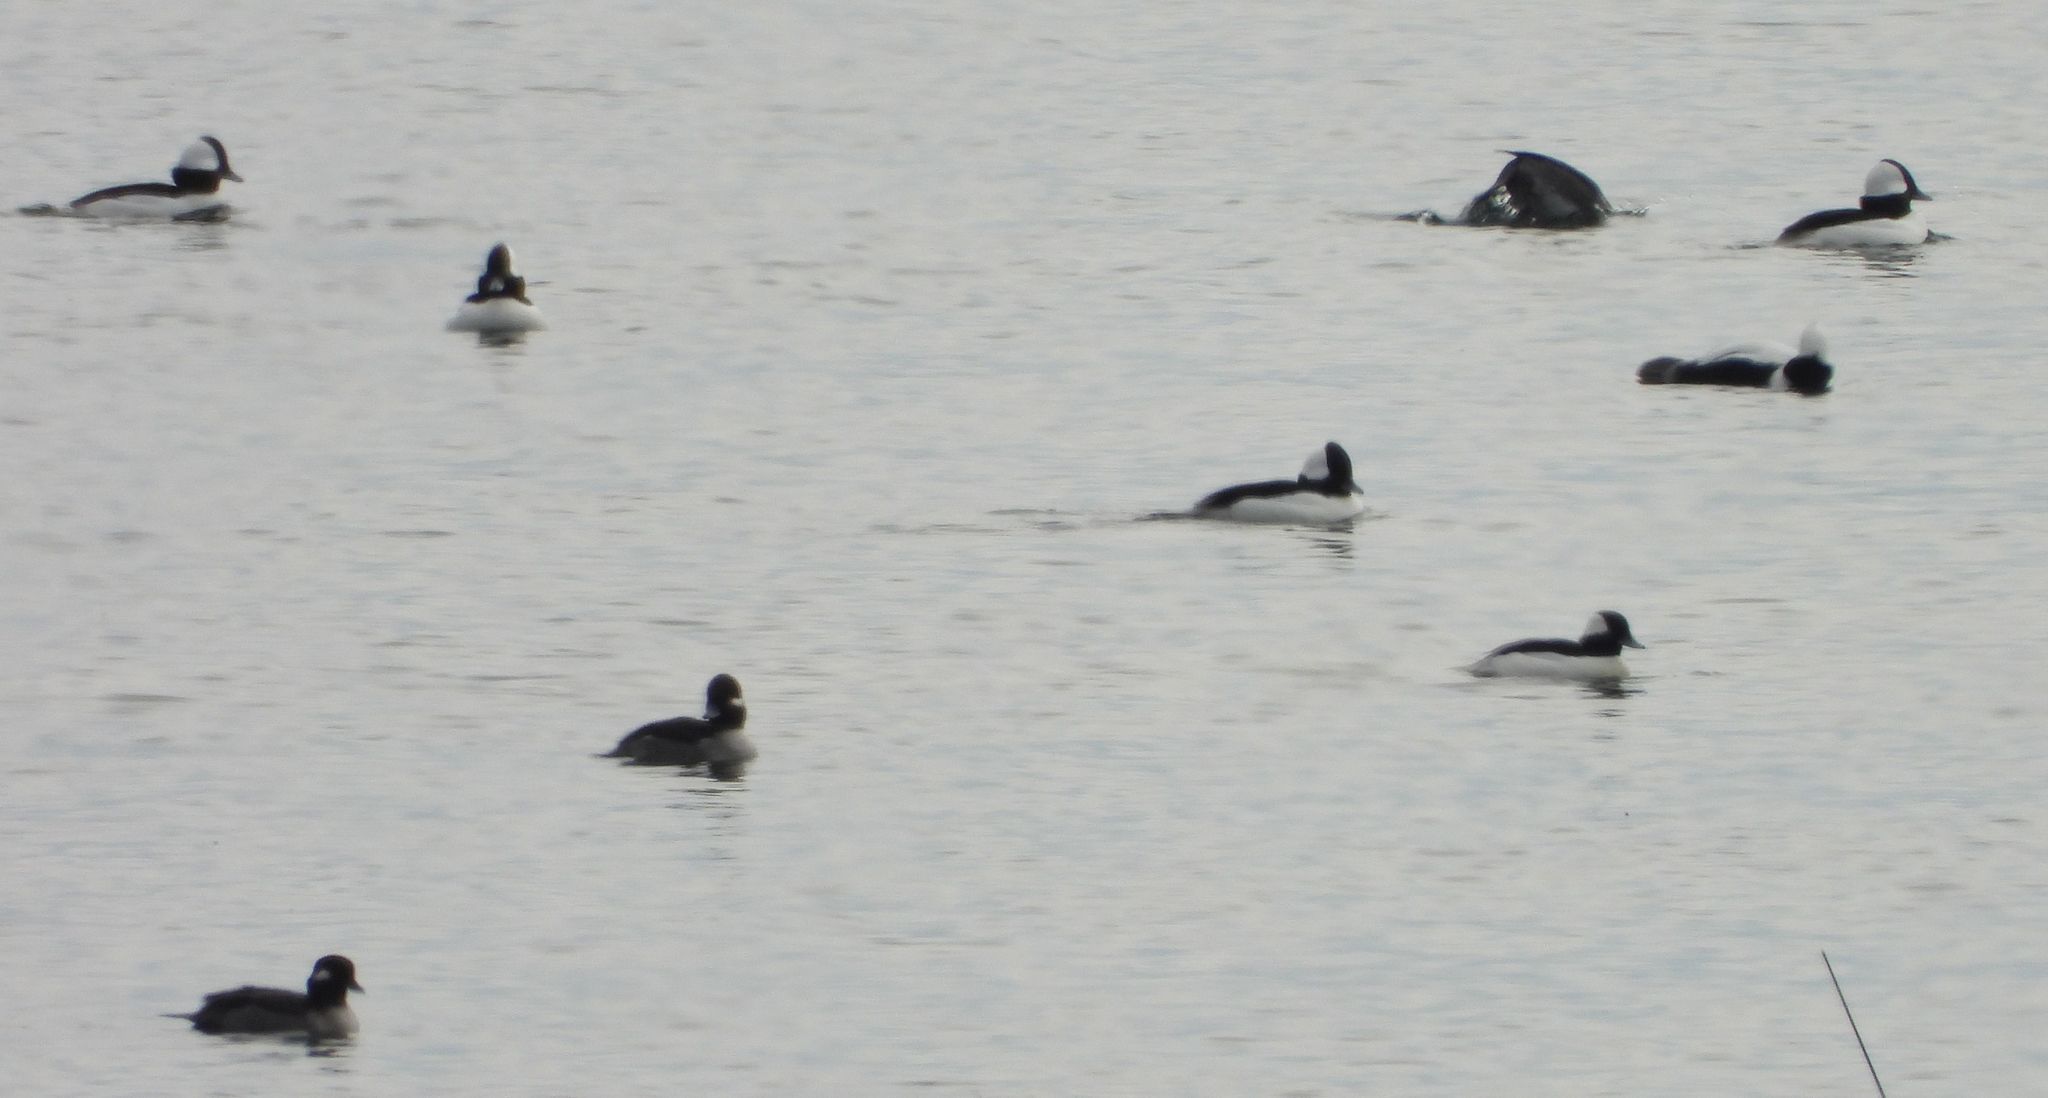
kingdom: Animalia
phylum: Chordata
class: Aves
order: Anseriformes
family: Anatidae
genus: Bucephala
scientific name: Bucephala albeola
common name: Bufflehead
